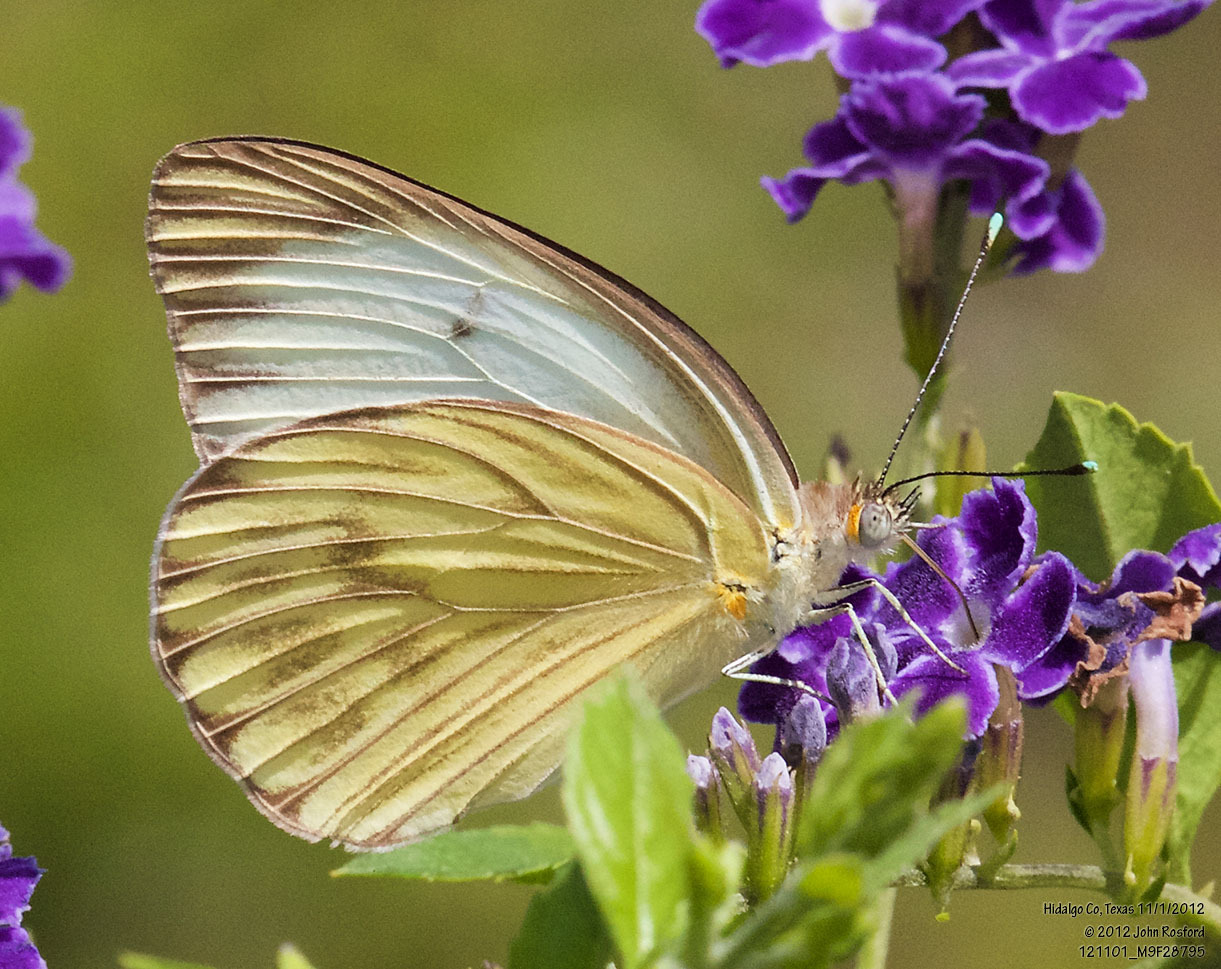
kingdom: Animalia
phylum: Arthropoda
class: Insecta
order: Lepidoptera
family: Pieridae
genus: Ascia
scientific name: Ascia monuste
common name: Great southern white
